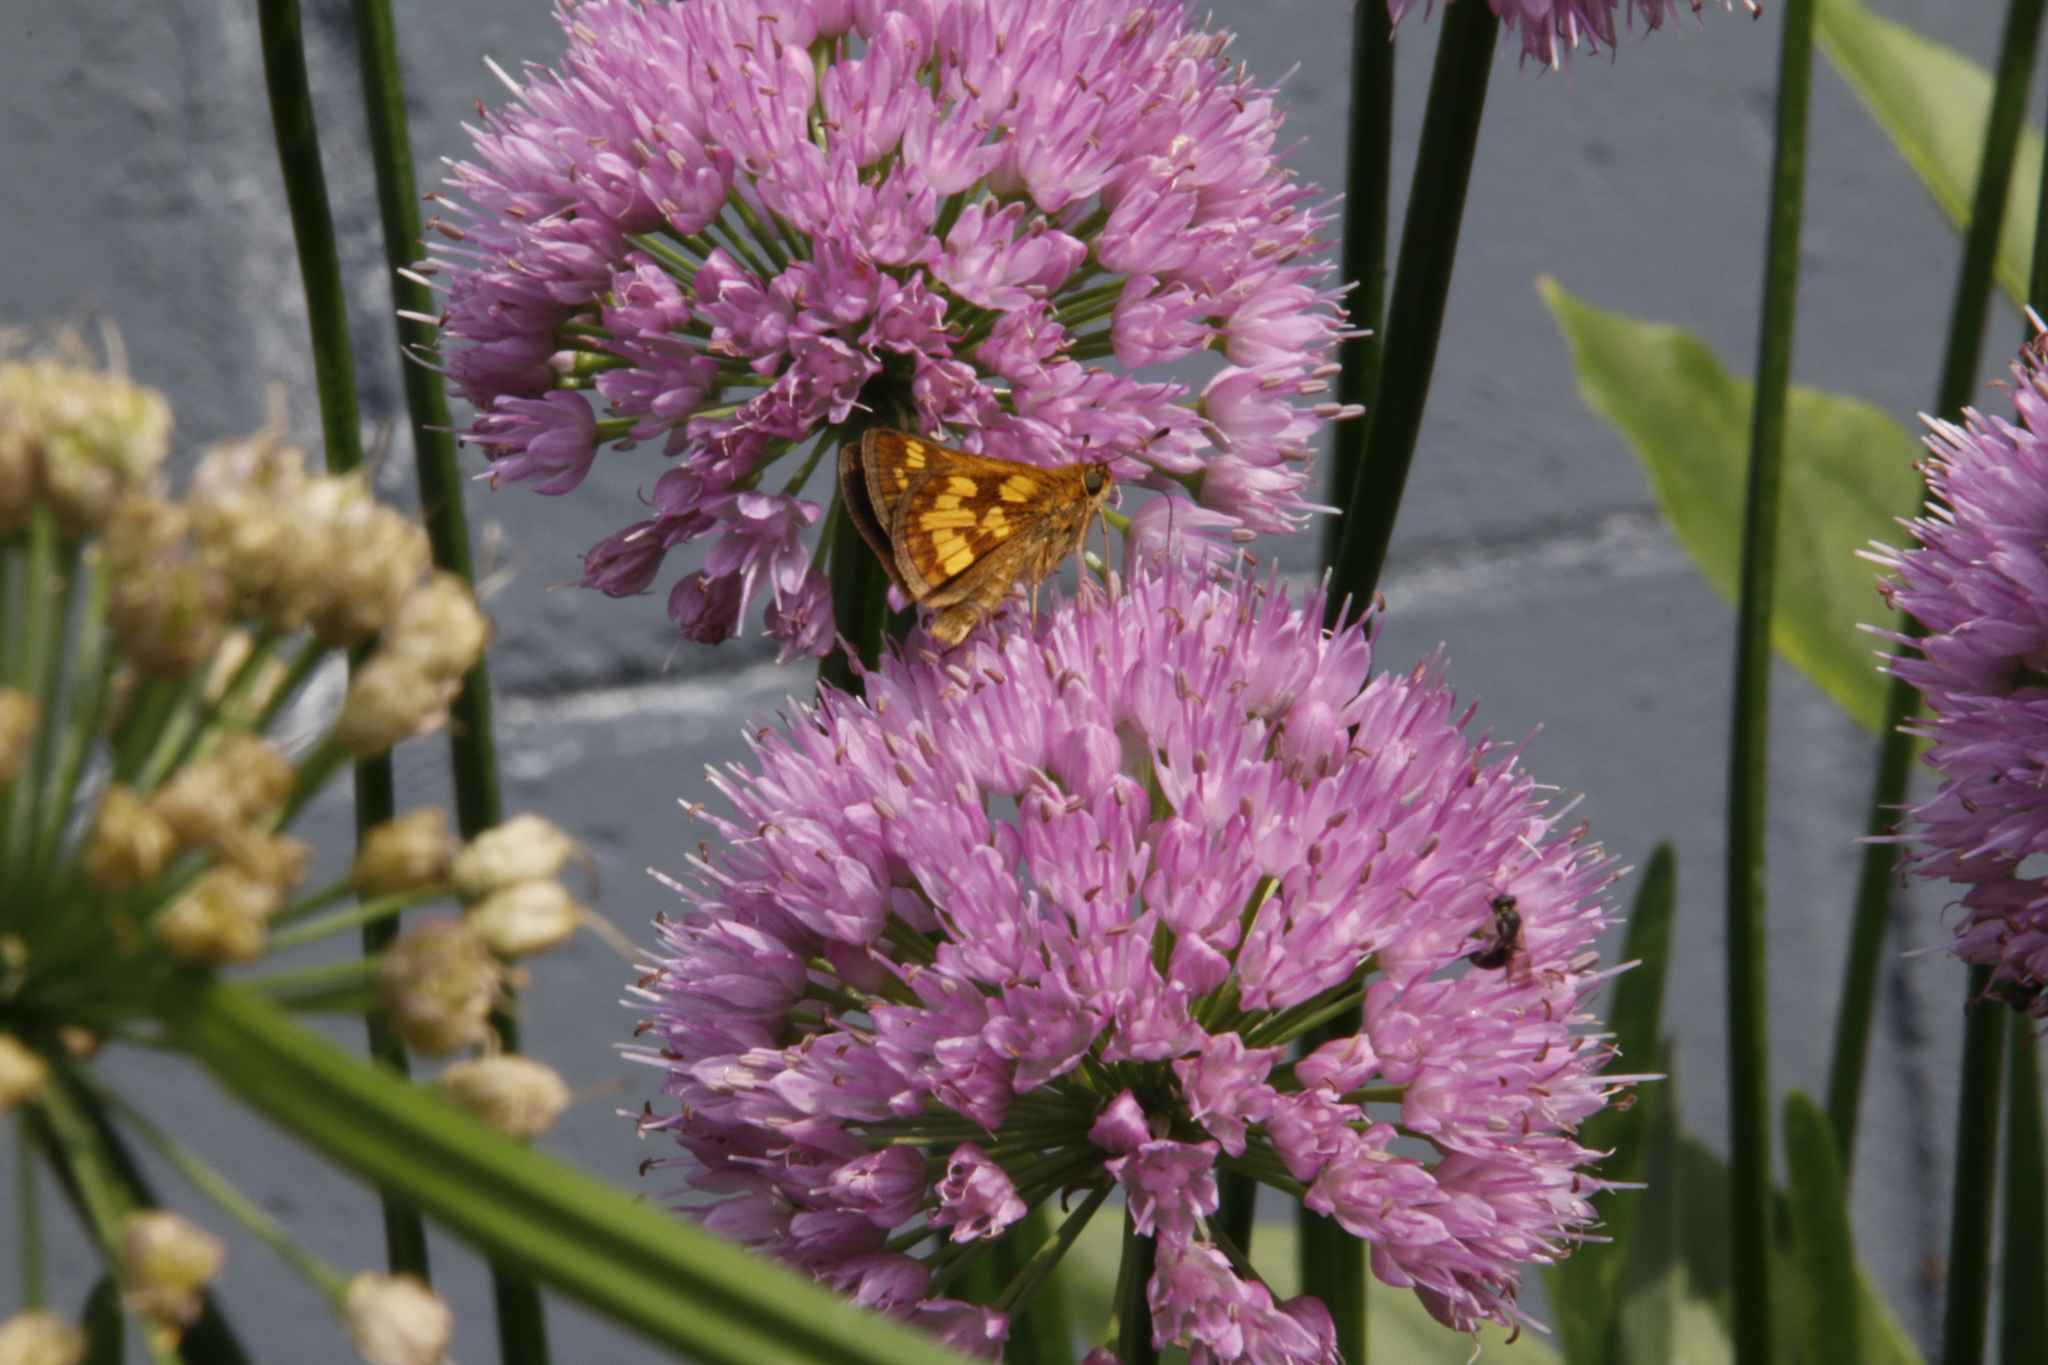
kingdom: Animalia
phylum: Arthropoda
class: Insecta
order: Lepidoptera
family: Hesperiidae
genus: Polites
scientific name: Polites coras
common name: Peck's skipper
